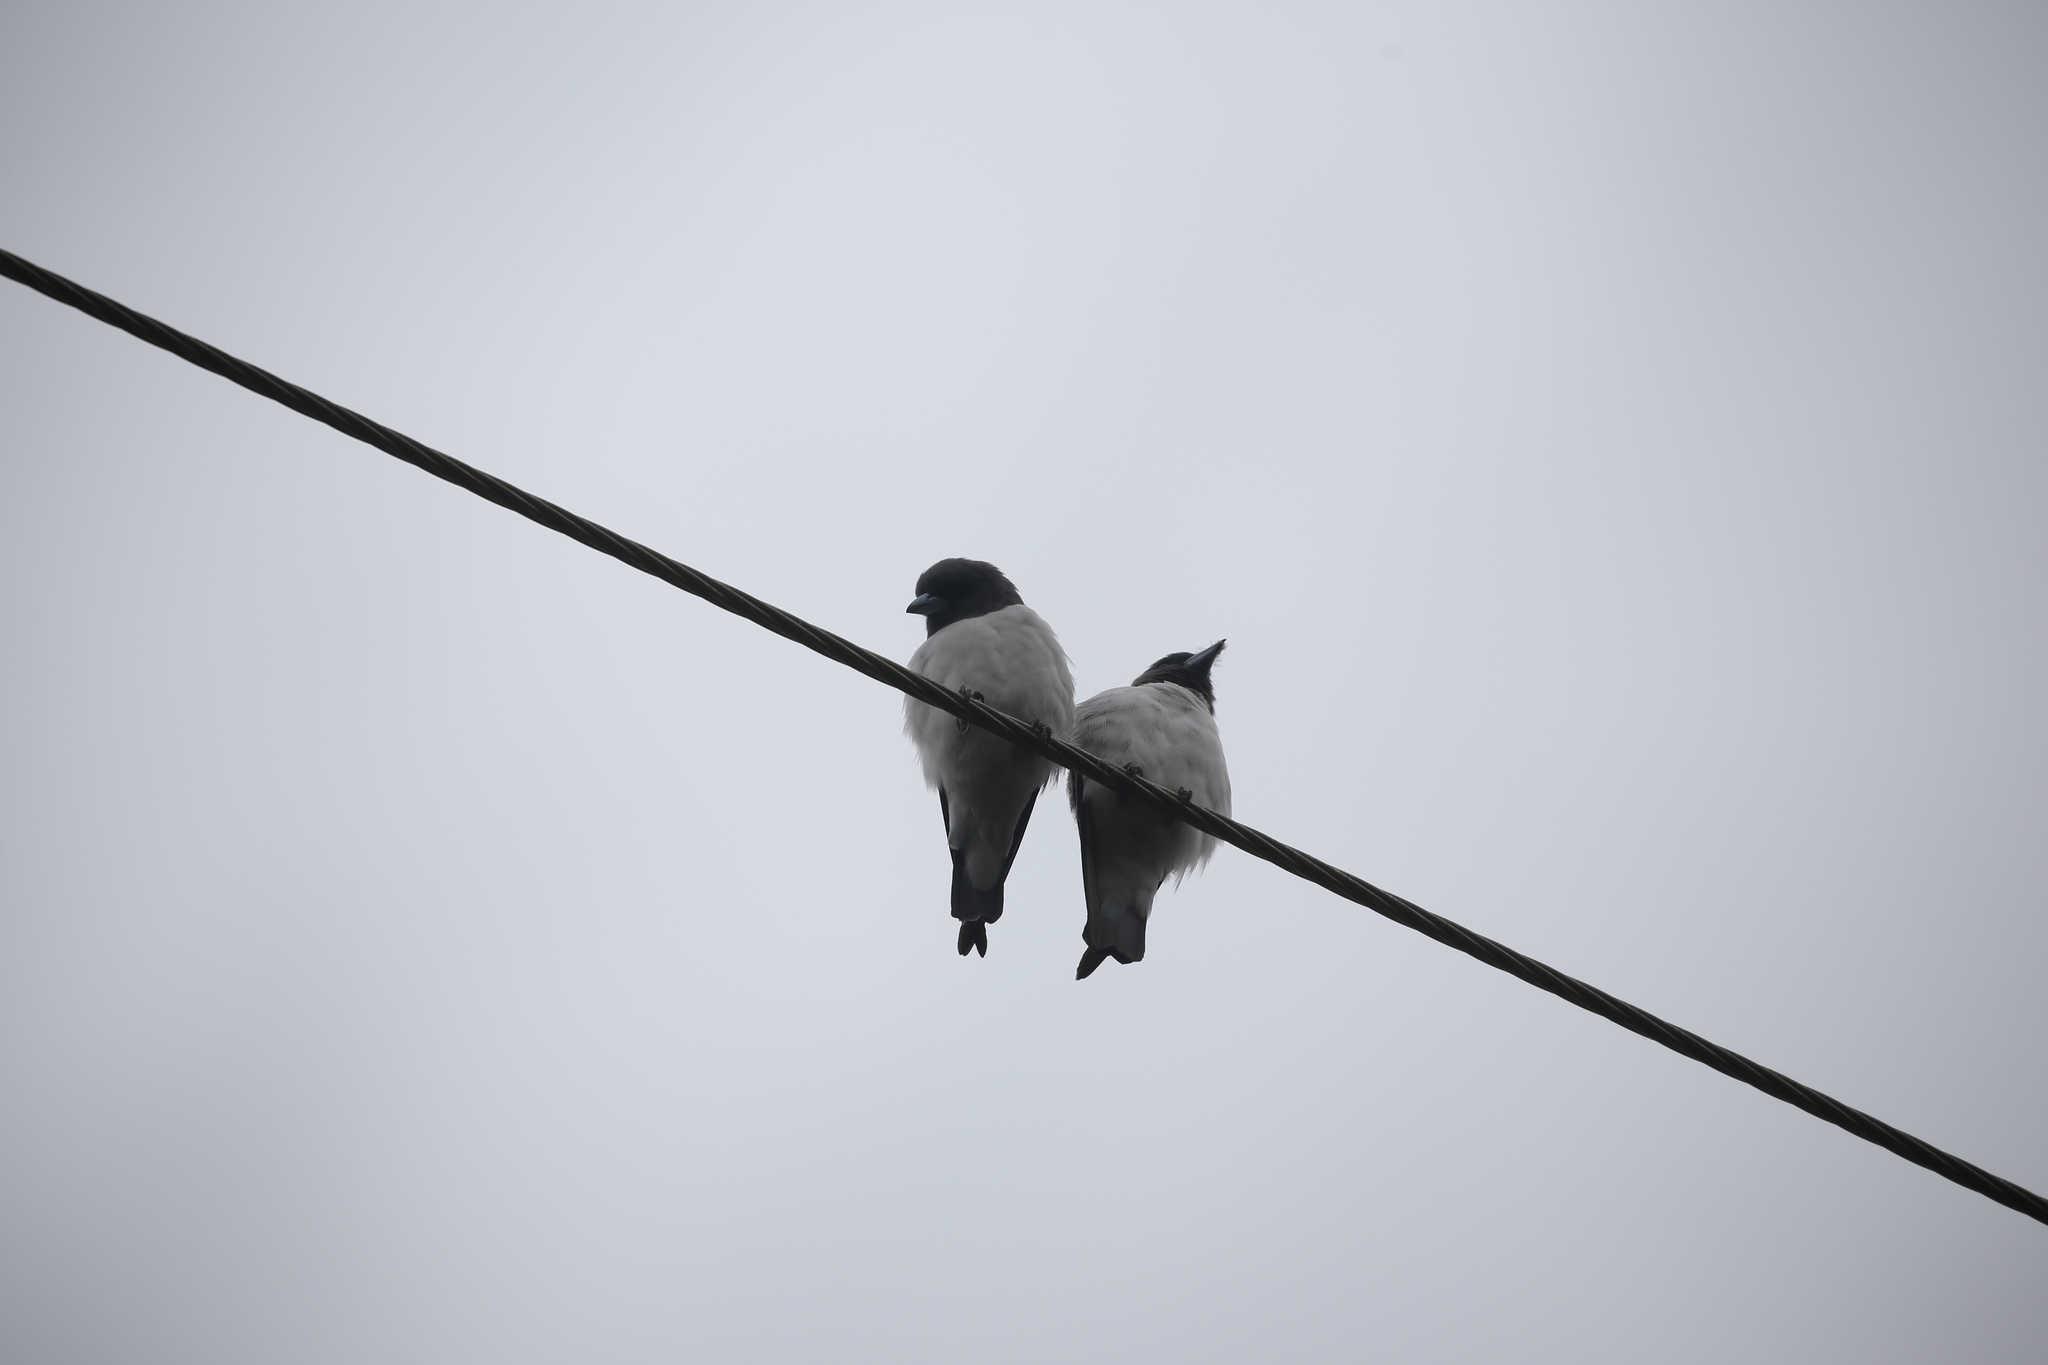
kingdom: Animalia
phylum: Chordata
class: Aves
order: Passeriformes
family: Artamidae
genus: Artamus
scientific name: Artamus leucoryn
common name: White-breasted woodswallow
